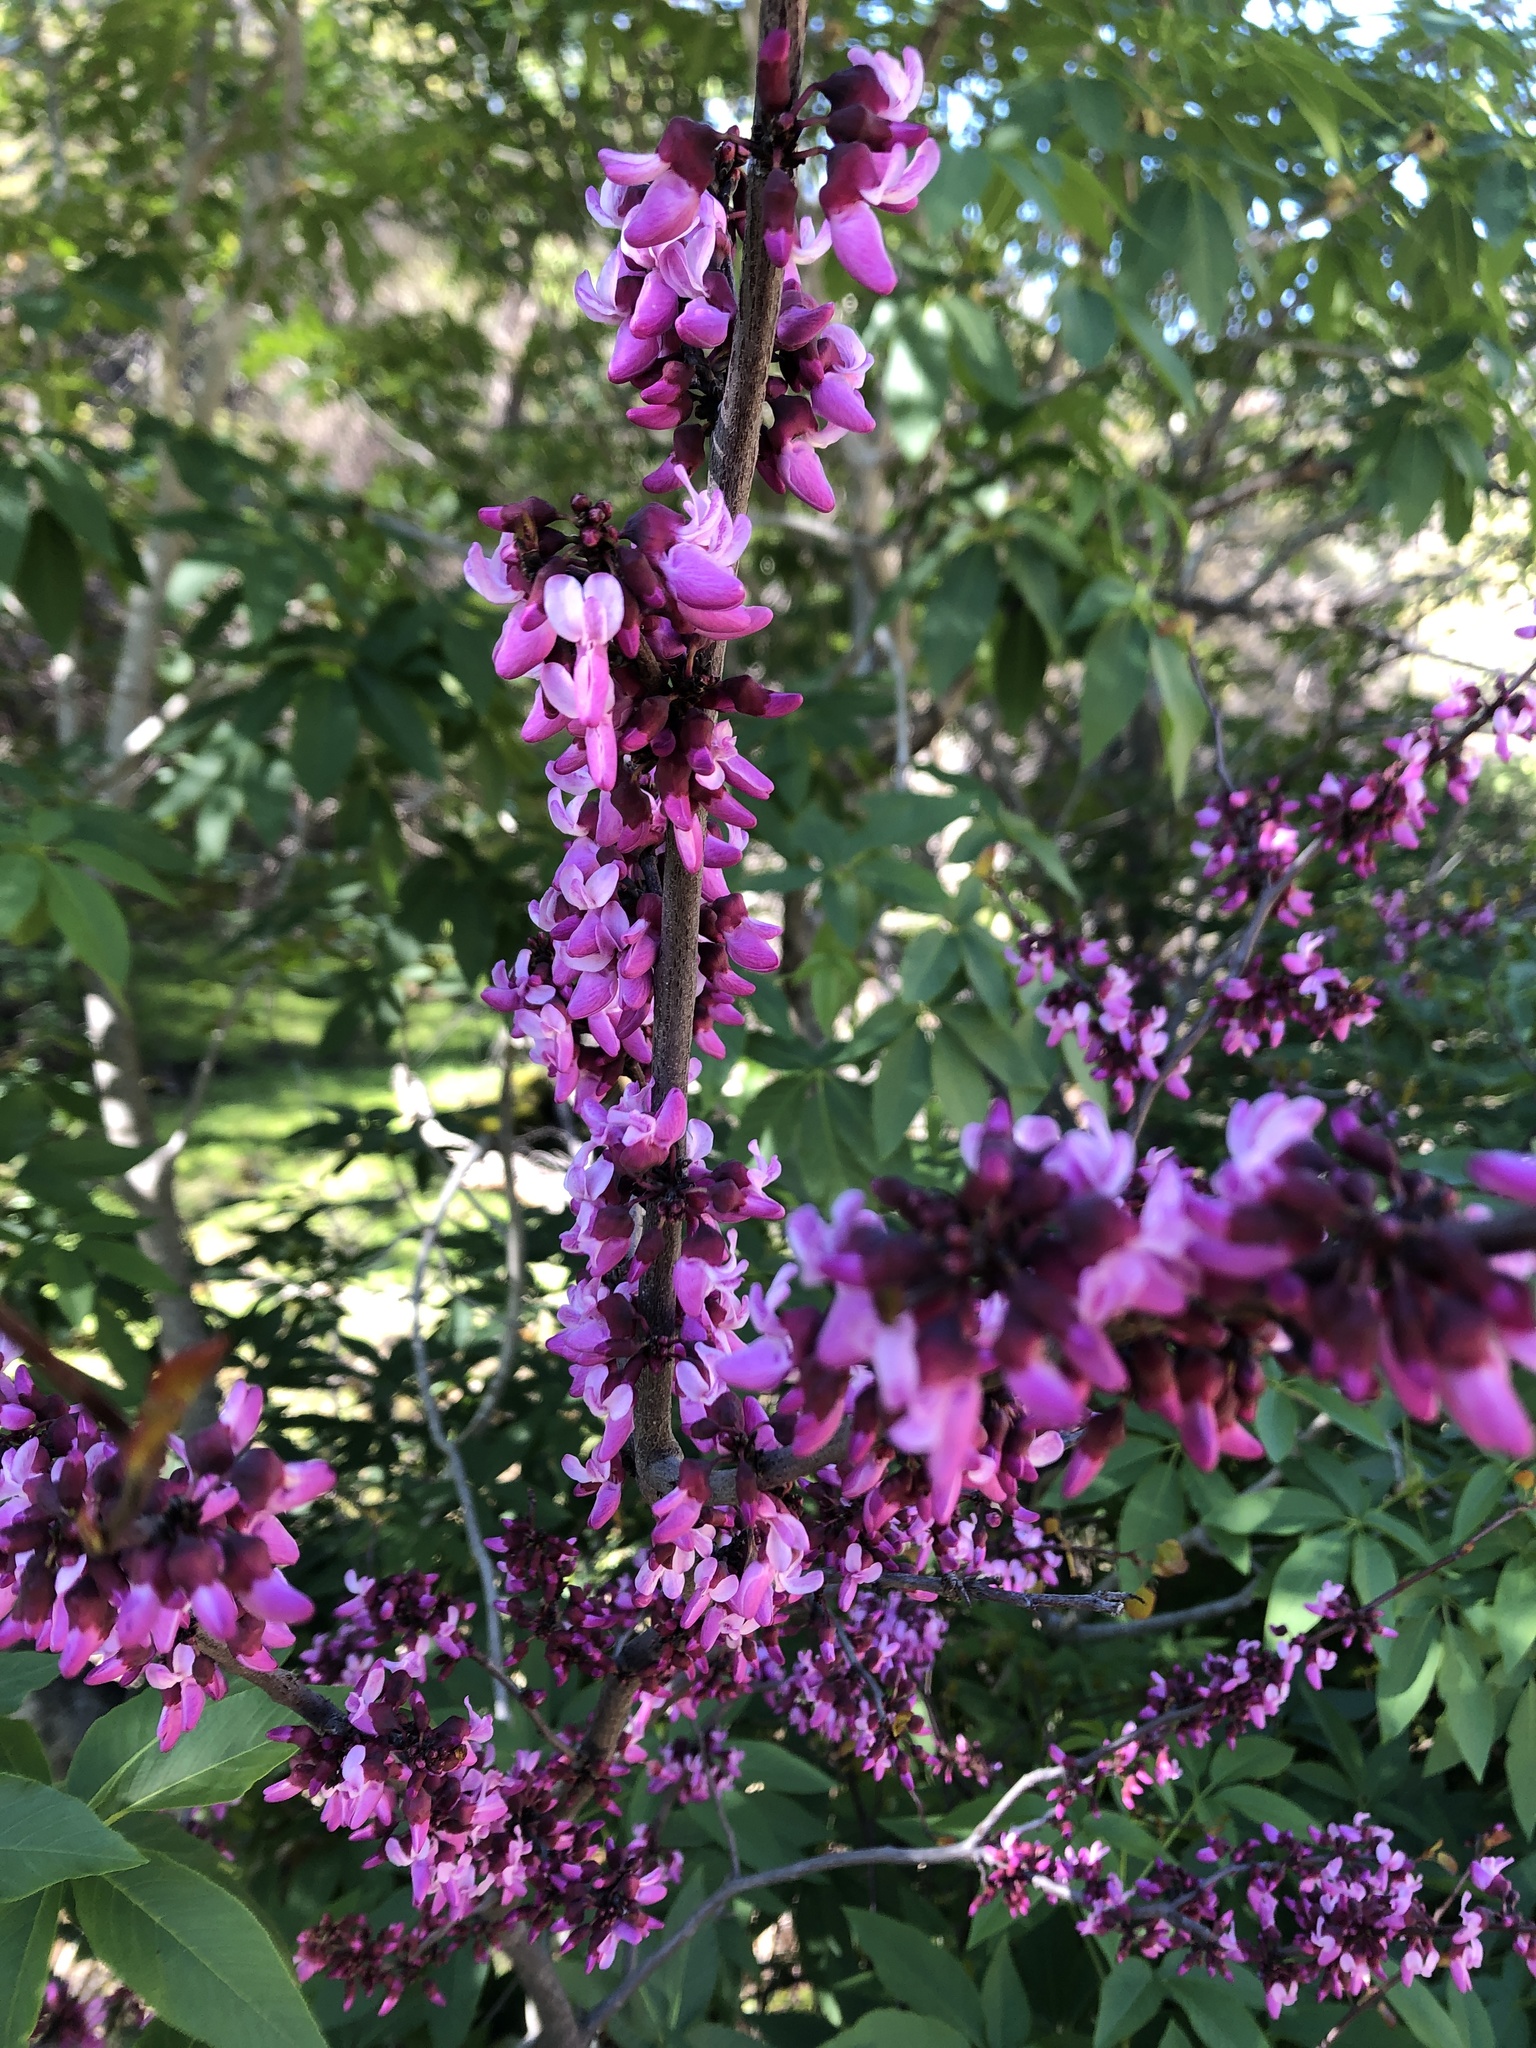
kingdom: Plantae
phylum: Tracheophyta
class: Magnoliopsida
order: Fabales
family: Fabaceae
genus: Cercis
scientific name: Cercis occidentalis
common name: California redbud
